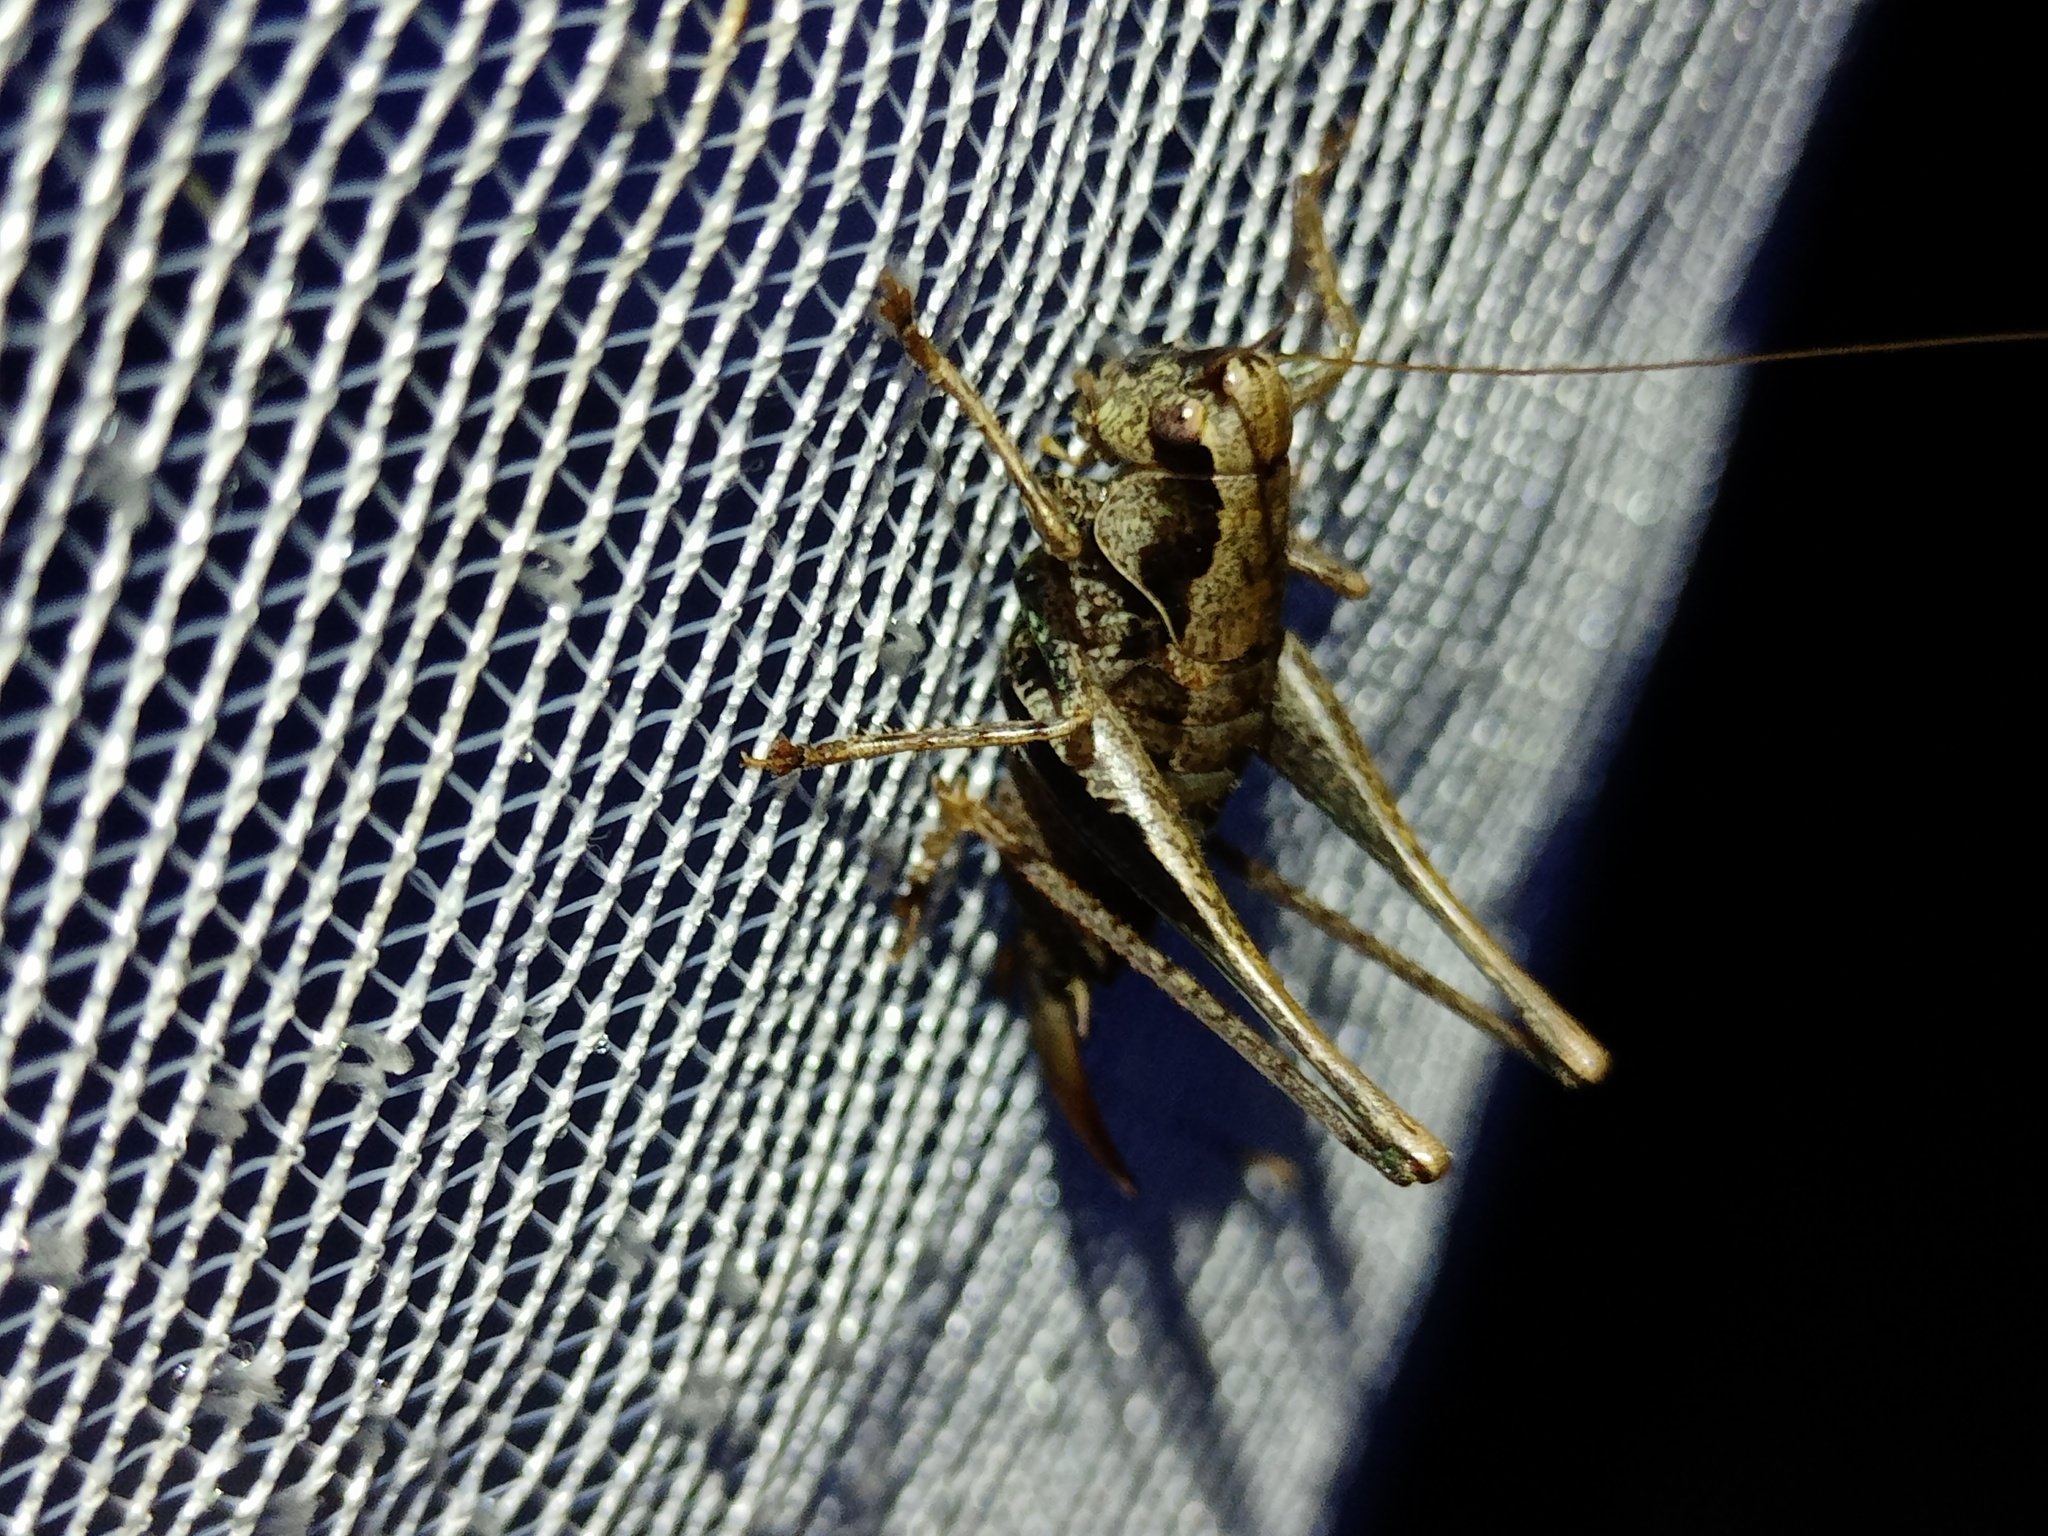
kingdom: Animalia
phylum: Arthropoda
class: Insecta
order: Orthoptera
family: Tettigoniidae
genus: Pholidoptera
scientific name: Pholidoptera griseoaptera
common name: Dark bush-cricket
